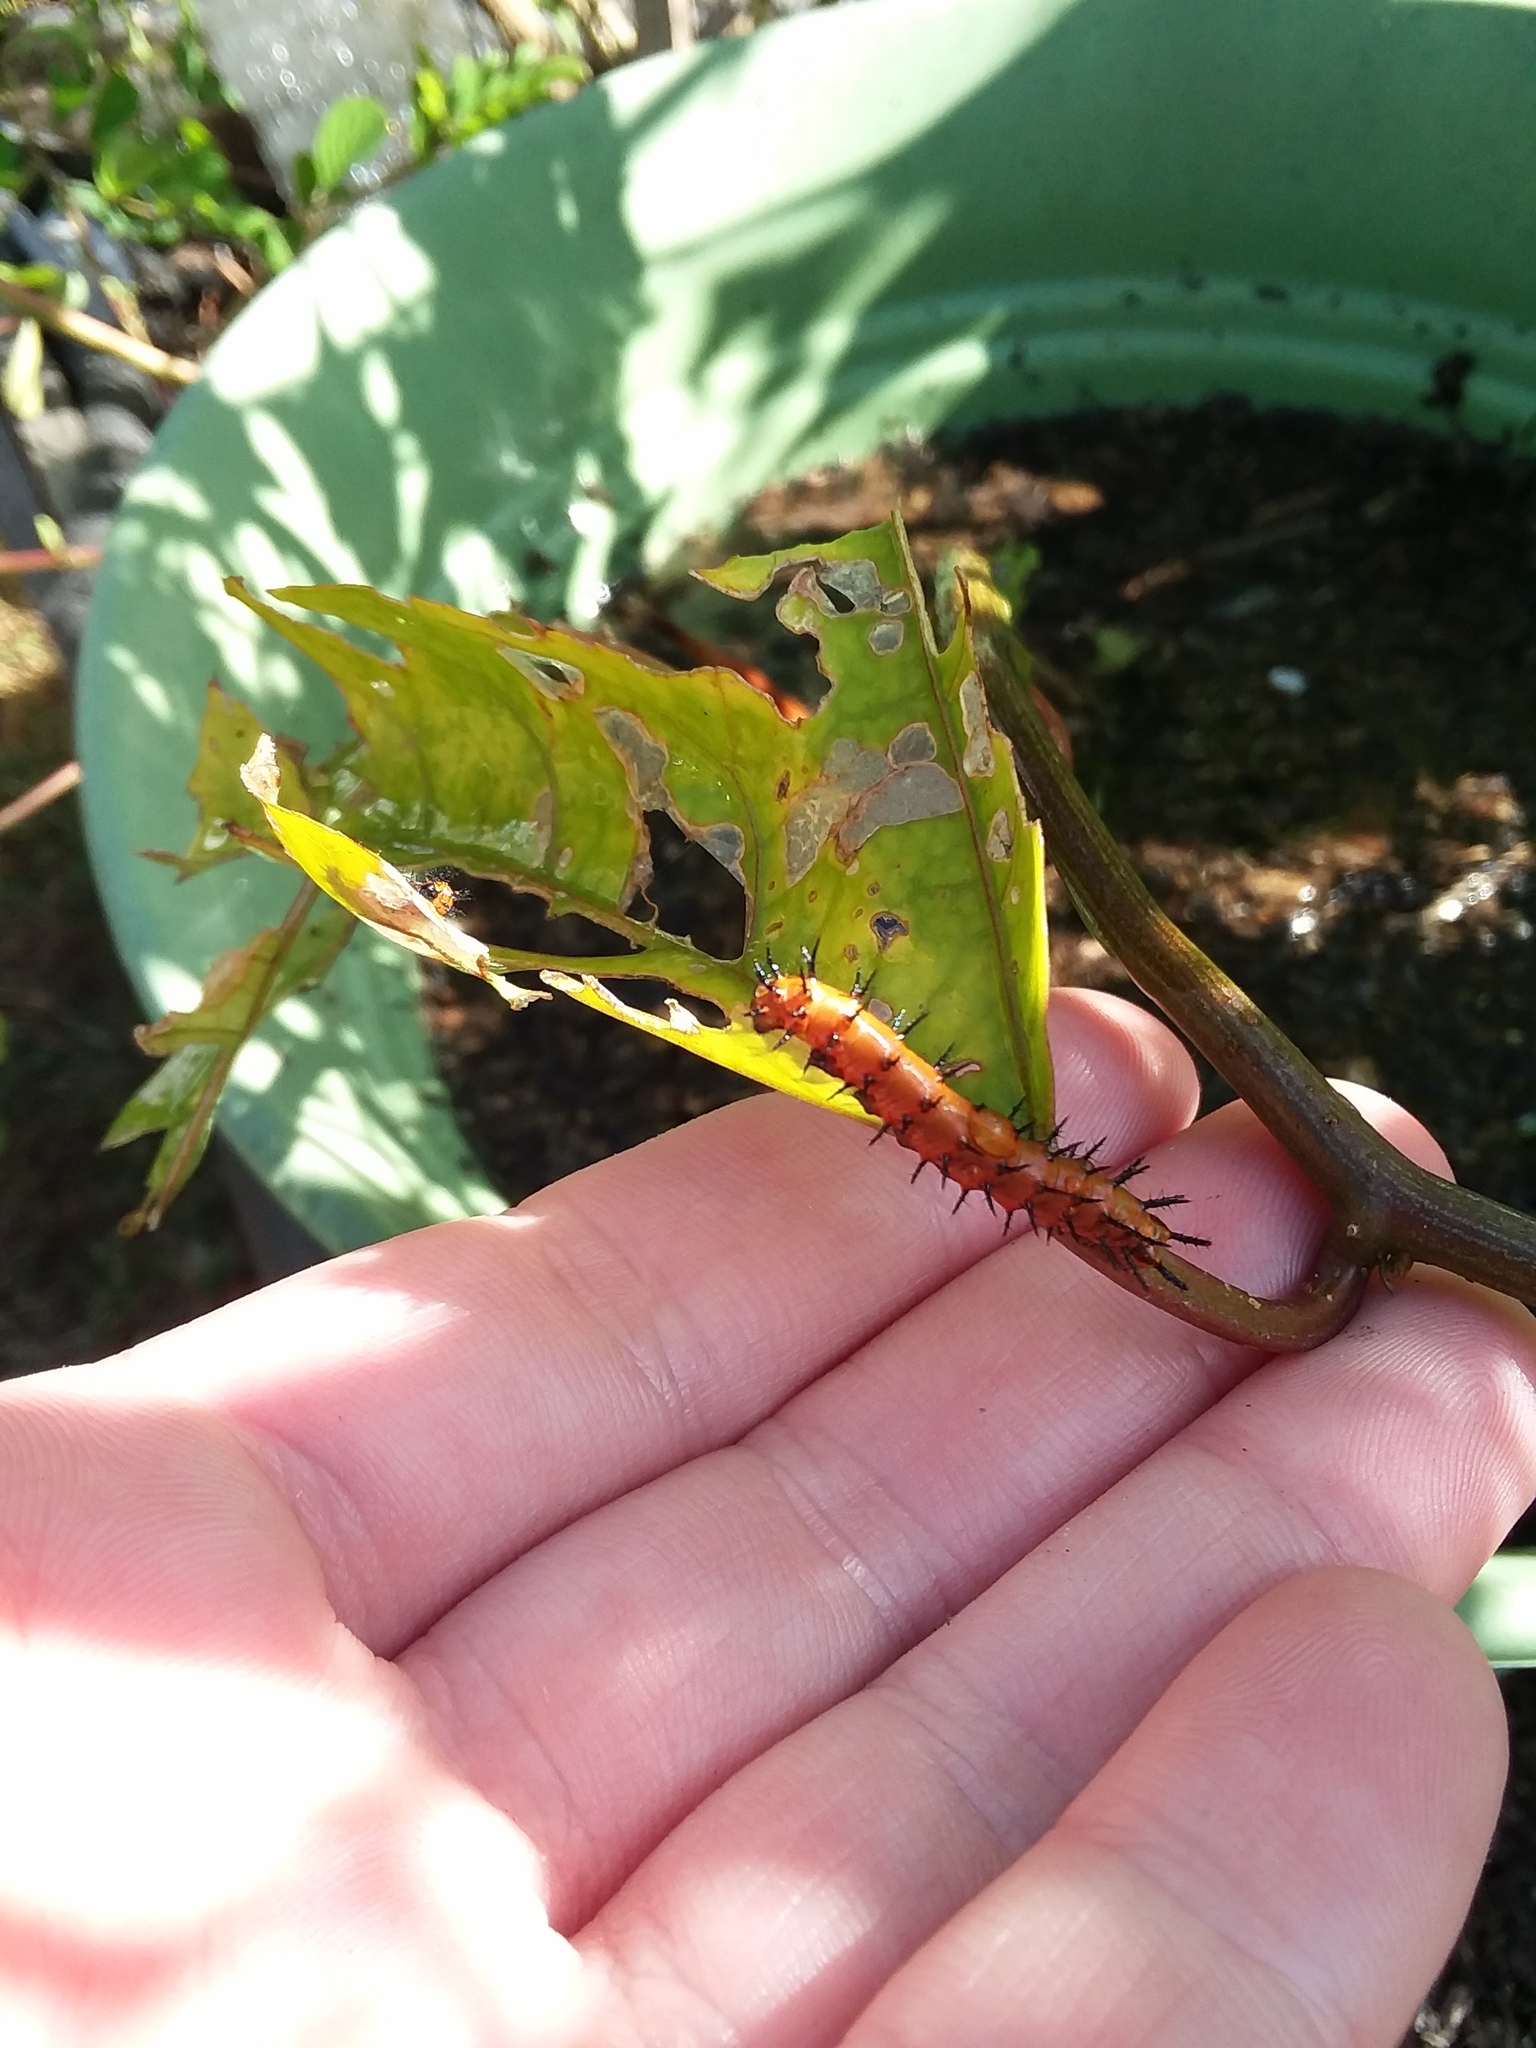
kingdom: Animalia
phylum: Arthropoda
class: Insecta
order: Lepidoptera
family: Nymphalidae
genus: Dione
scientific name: Dione vanillae
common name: Gulf fritillary
